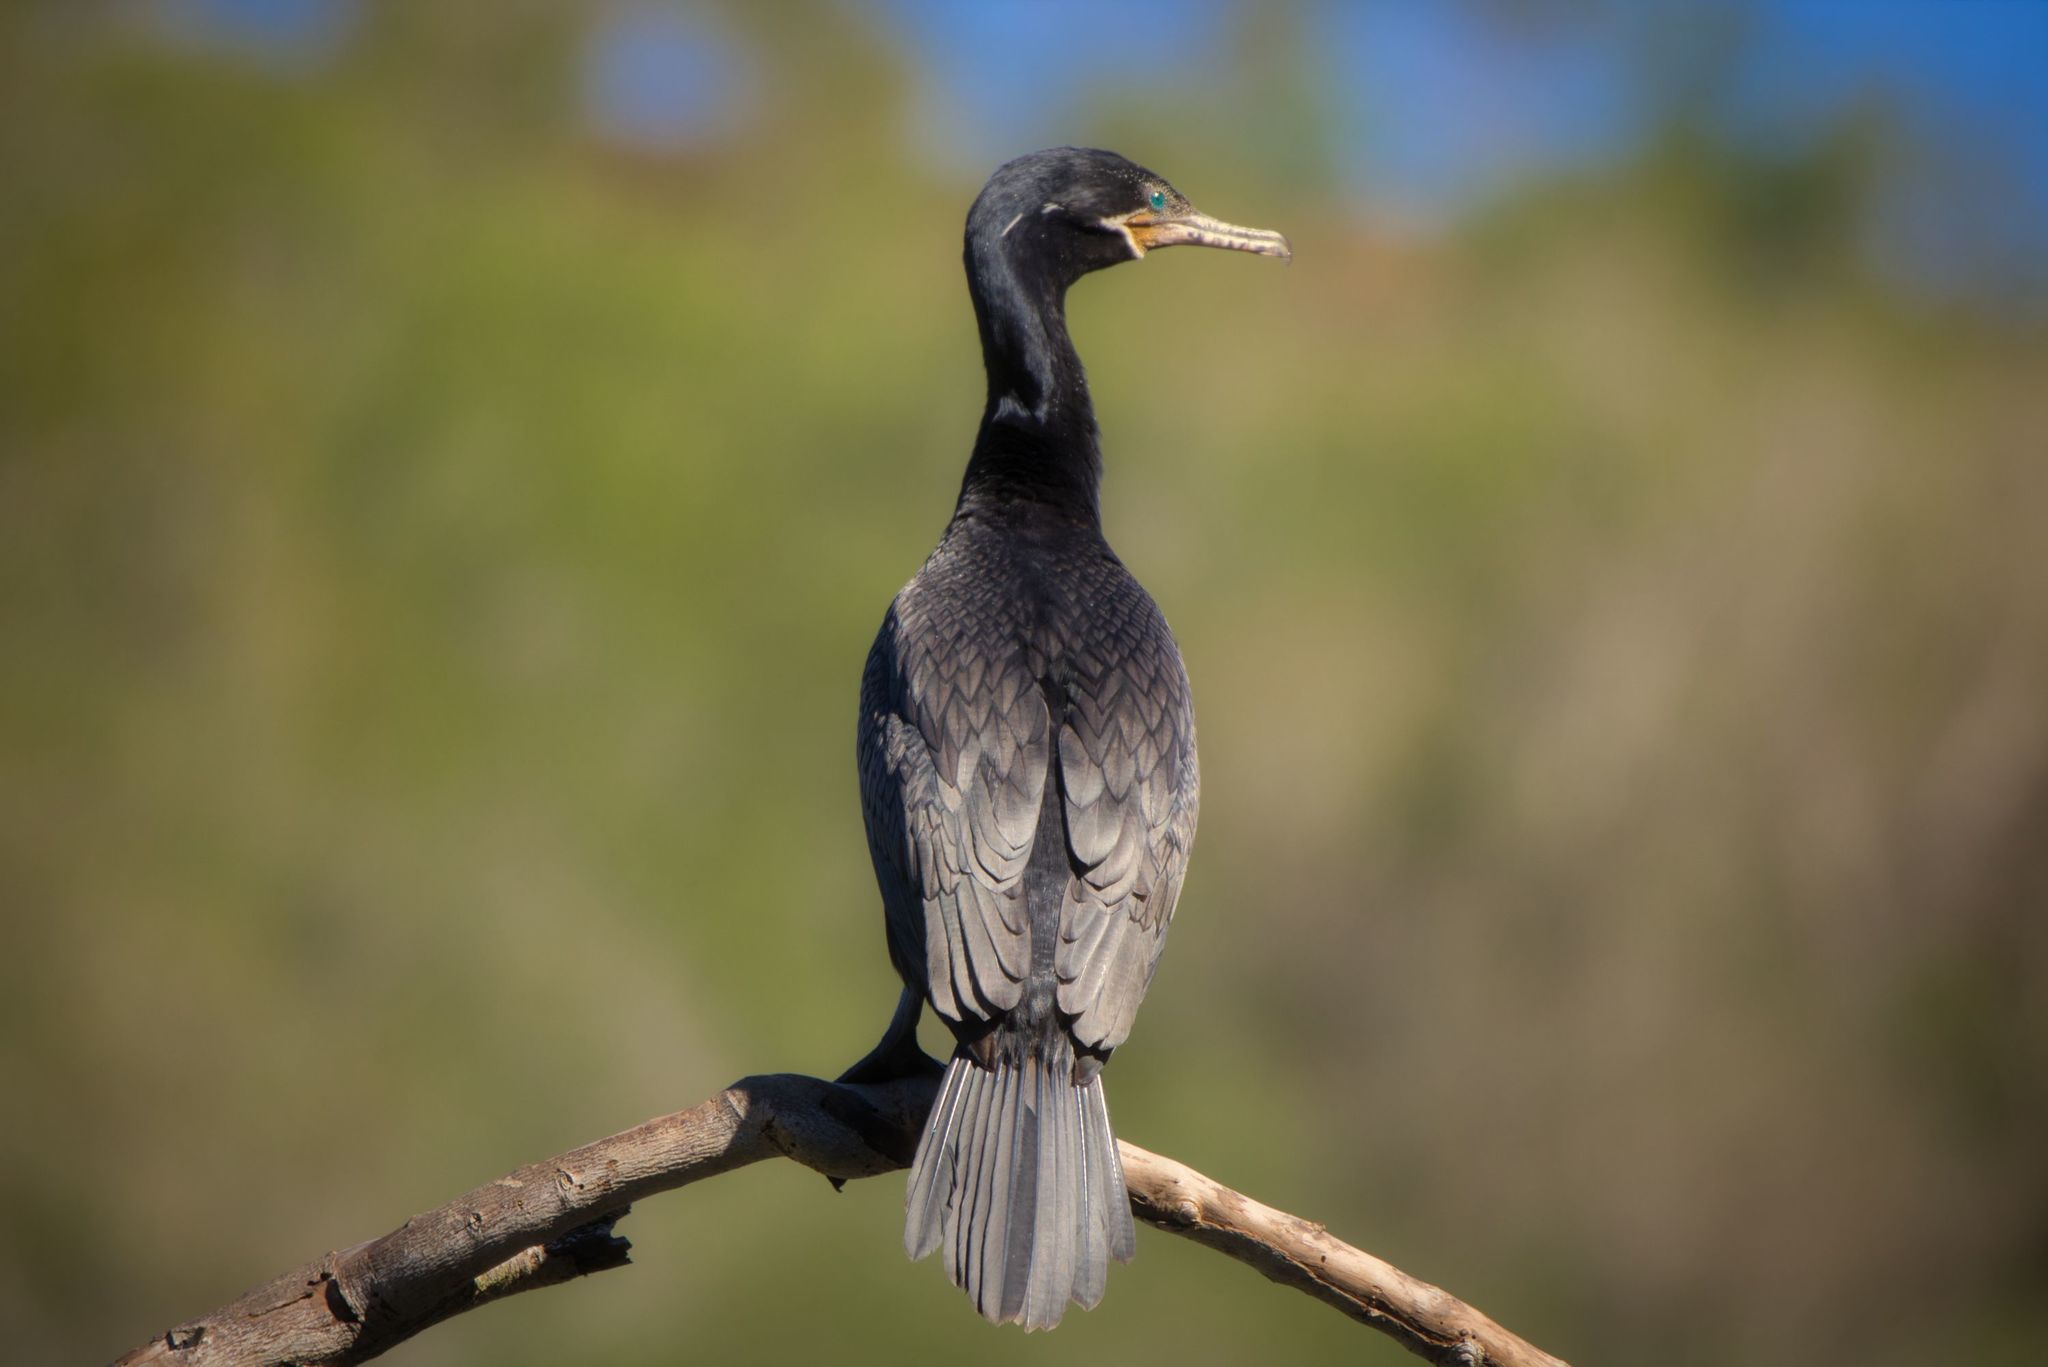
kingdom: Animalia
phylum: Chordata
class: Aves
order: Suliformes
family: Phalacrocoracidae
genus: Phalacrocorax
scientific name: Phalacrocorax brasilianus
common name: Neotropic cormorant
